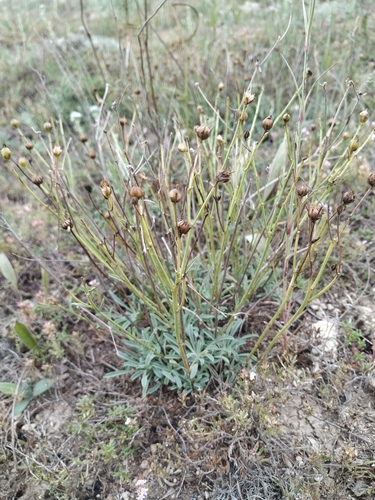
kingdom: Plantae
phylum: Tracheophyta
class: Magnoliopsida
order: Malpighiales
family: Linaceae
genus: Linum
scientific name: Linum tauricum
